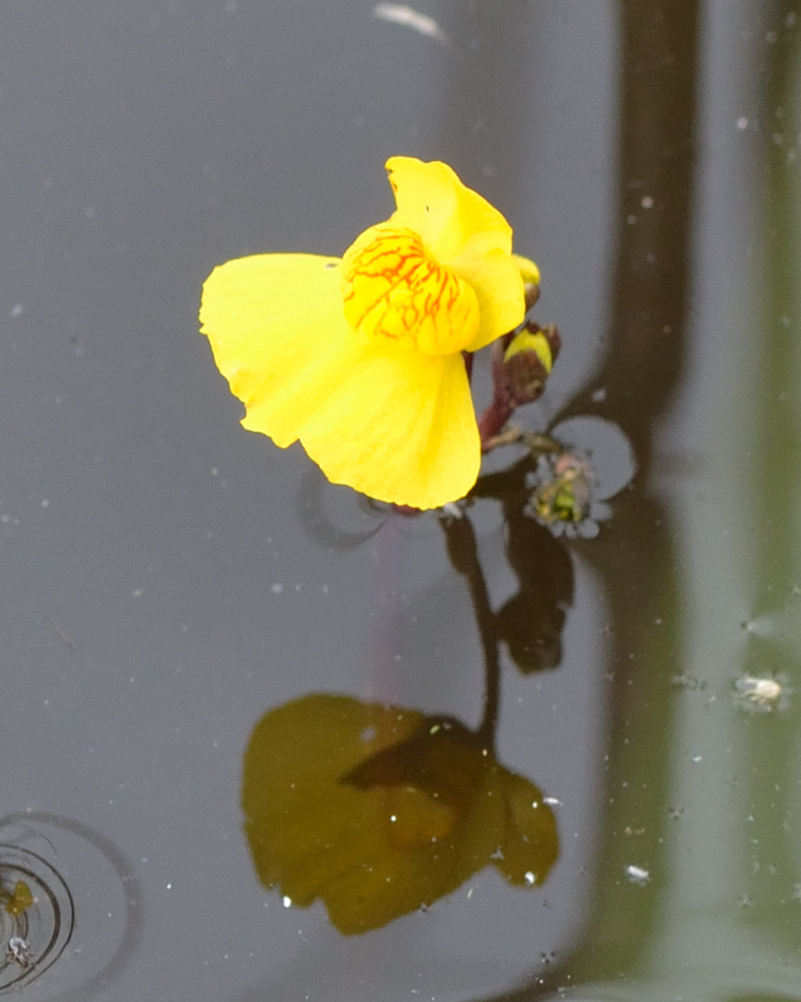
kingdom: Plantae
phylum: Tracheophyta
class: Magnoliopsida
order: Lamiales
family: Lentibulariaceae
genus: Utricularia
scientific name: Utricularia australis
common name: Bladderwort
